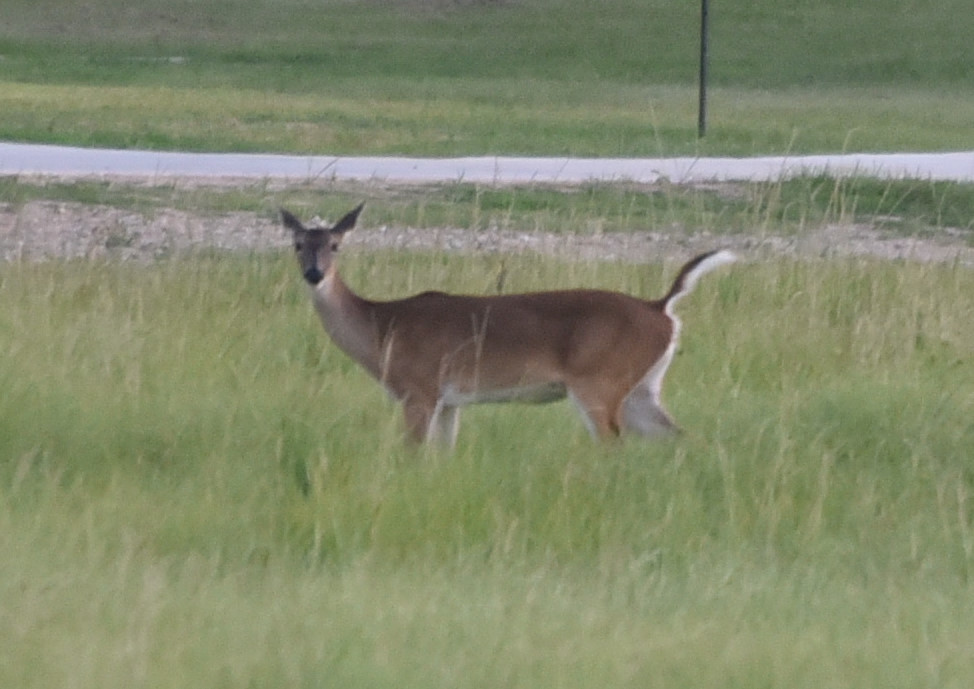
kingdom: Animalia
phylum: Chordata
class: Mammalia
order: Artiodactyla
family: Cervidae
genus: Odocoileus
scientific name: Odocoileus virginianus
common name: White-tailed deer
